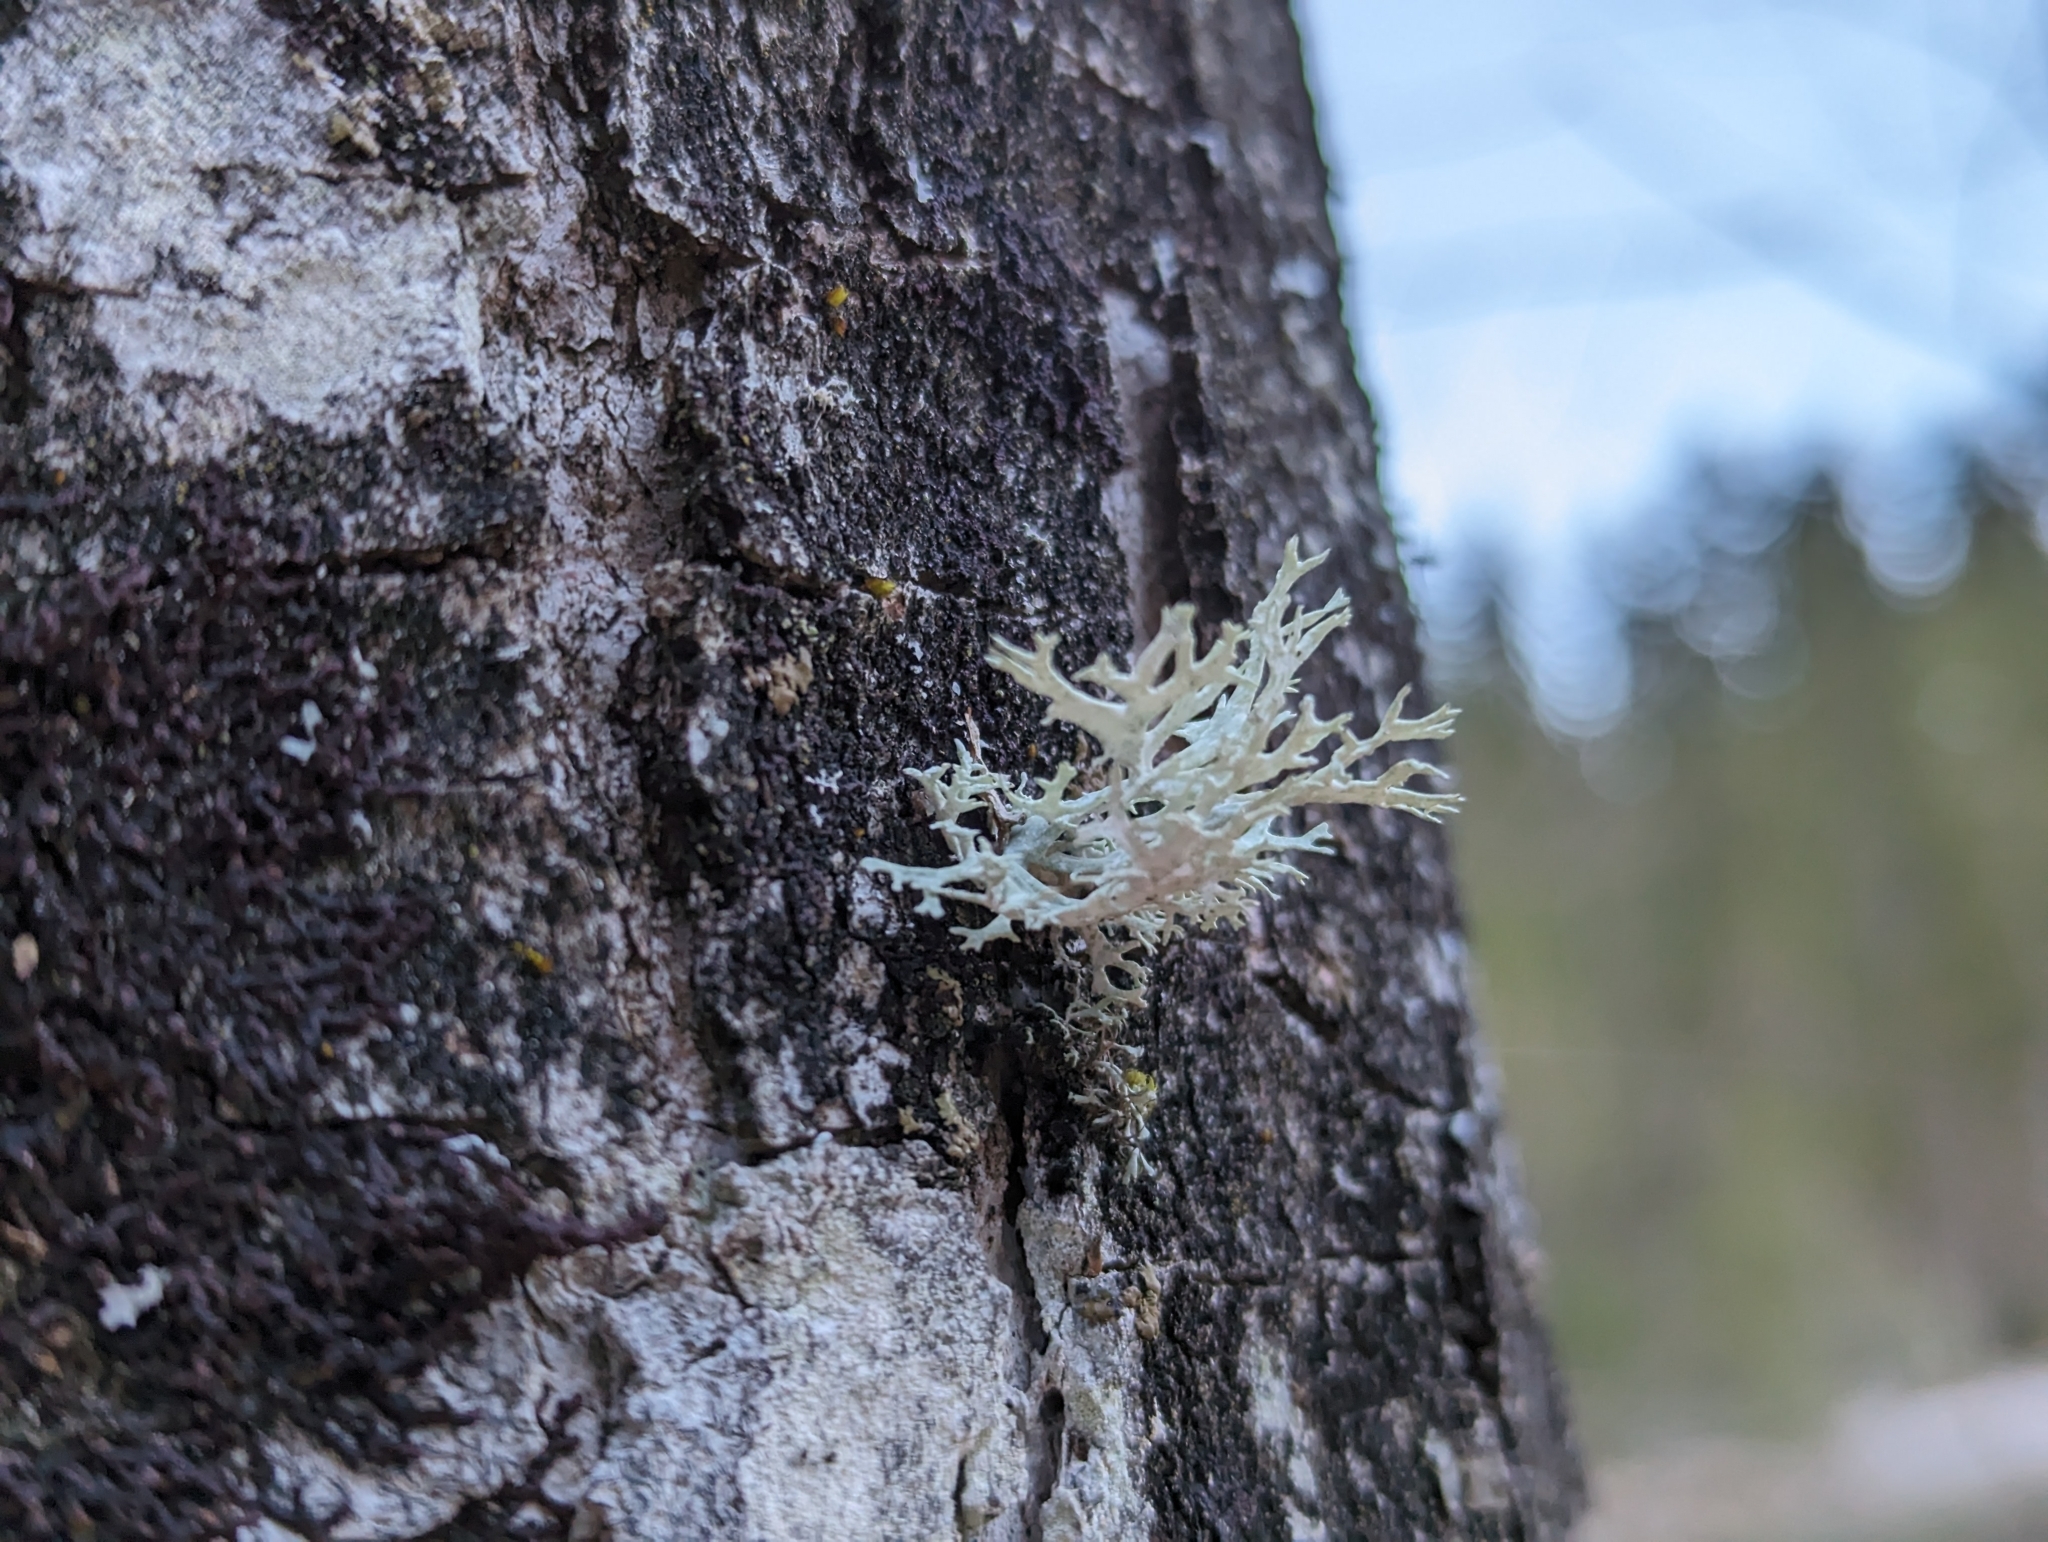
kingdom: Fungi
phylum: Ascomycota
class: Lecanoromycetes
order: Lecanorales
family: Parmeliaceae
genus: Evernia
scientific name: Evernia prunastri
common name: Oak moss
